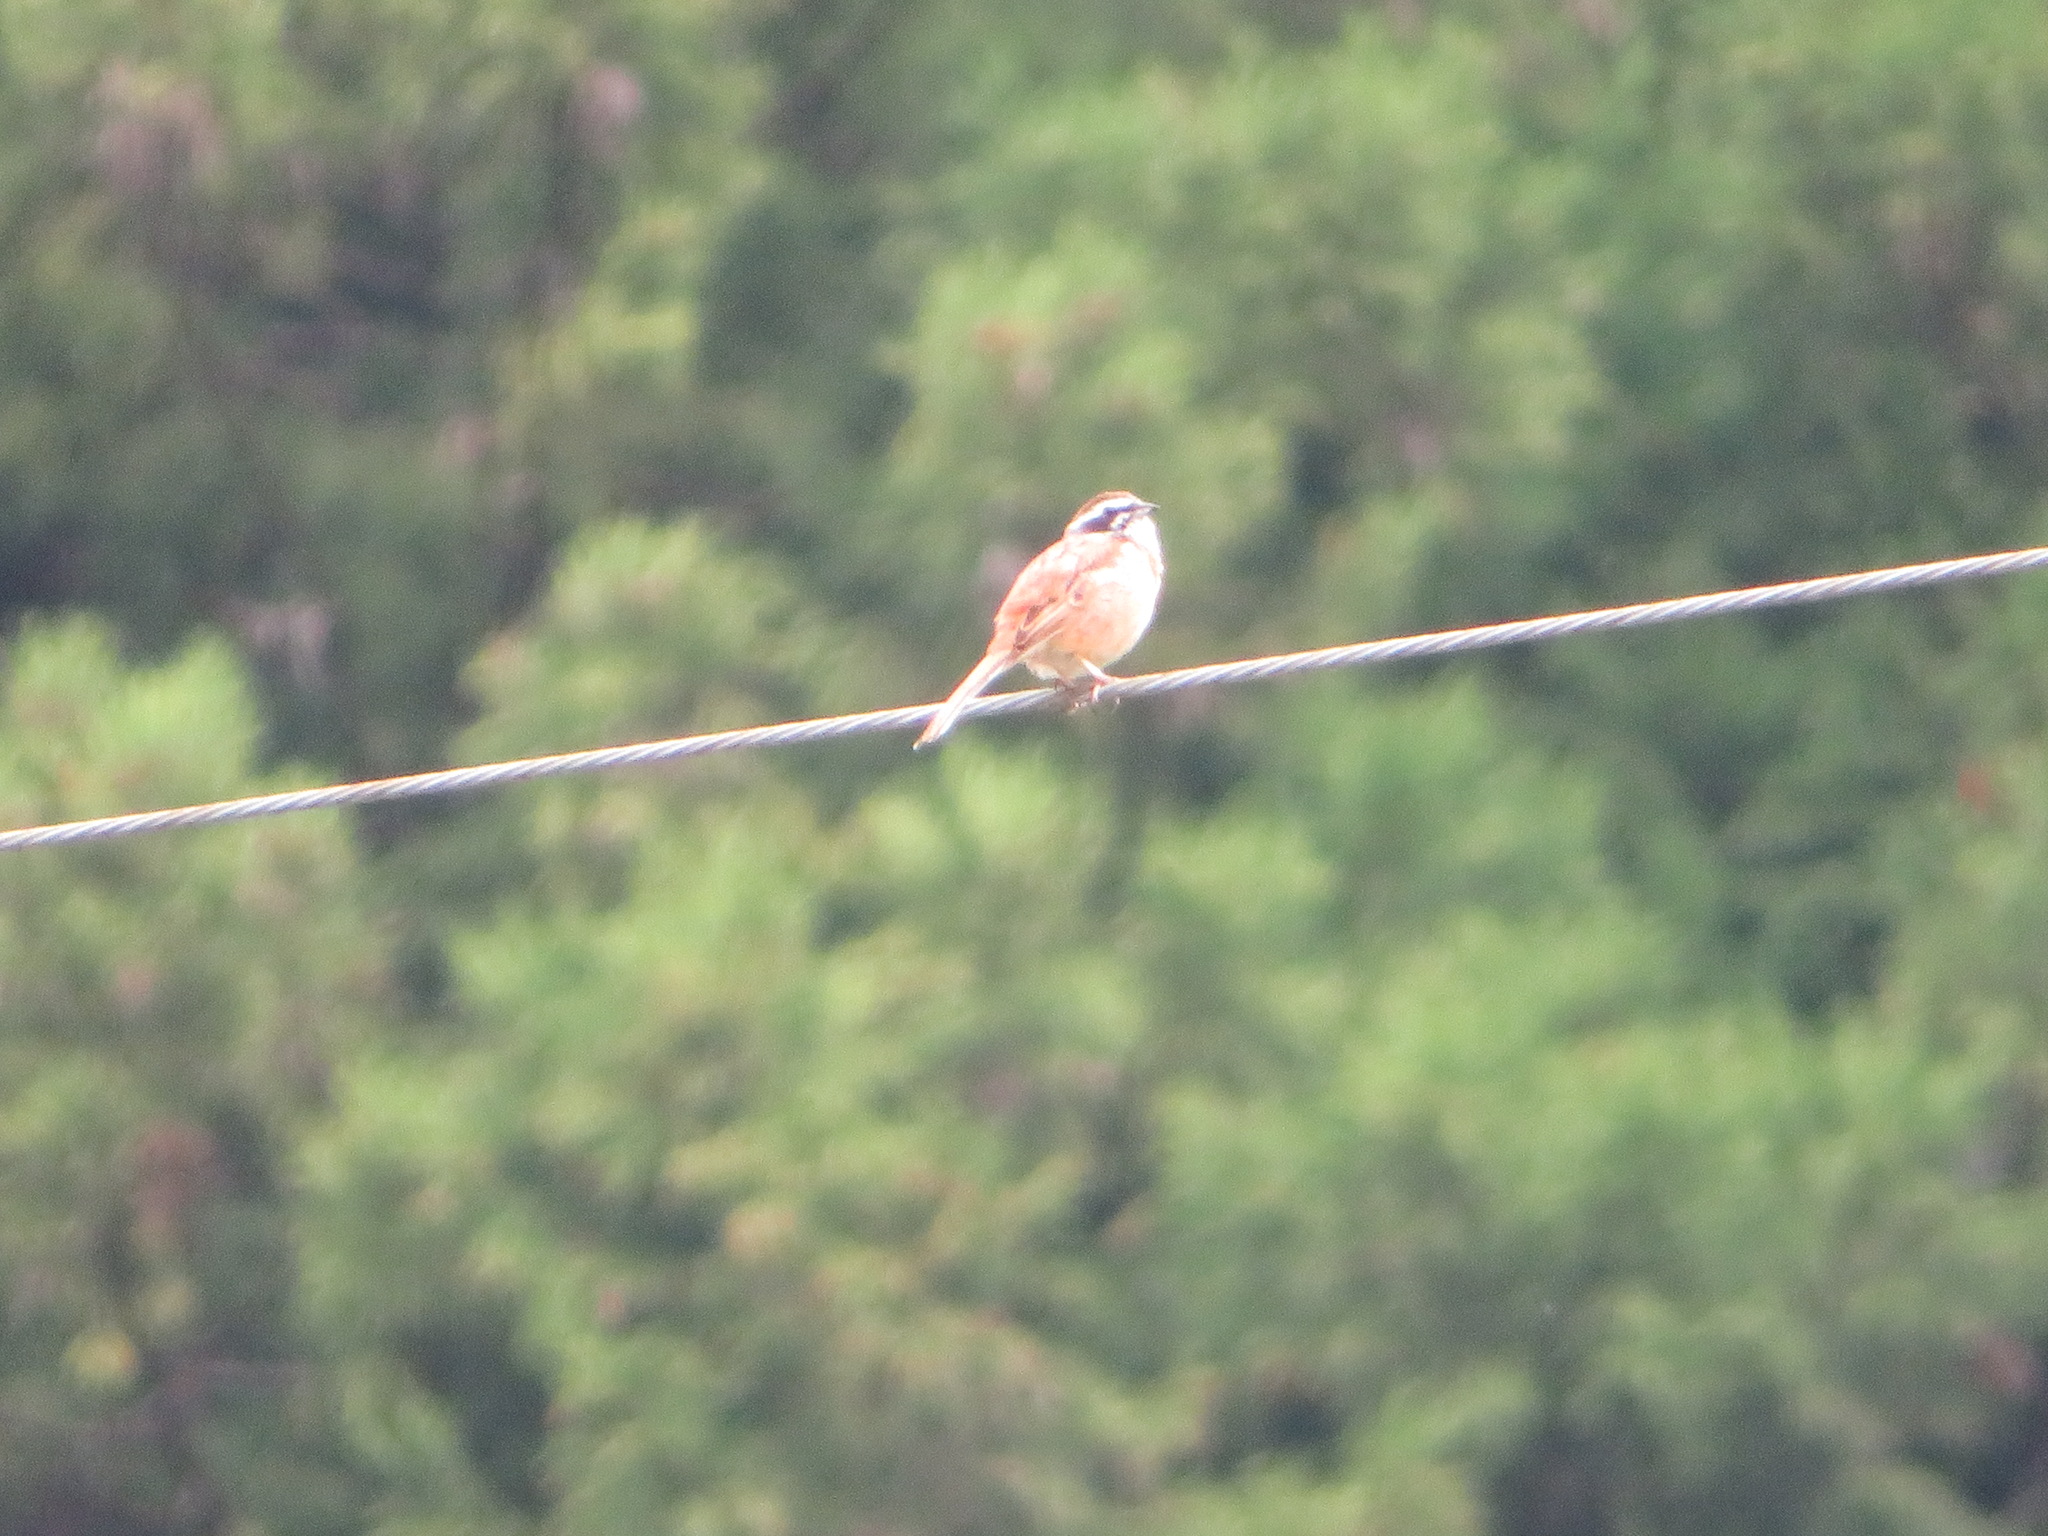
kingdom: Animalia
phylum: Chordata
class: Aves
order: Passeriformes
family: Emberizidae
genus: Emberiza
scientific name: Emberiza cioides
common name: Meadow bunting
